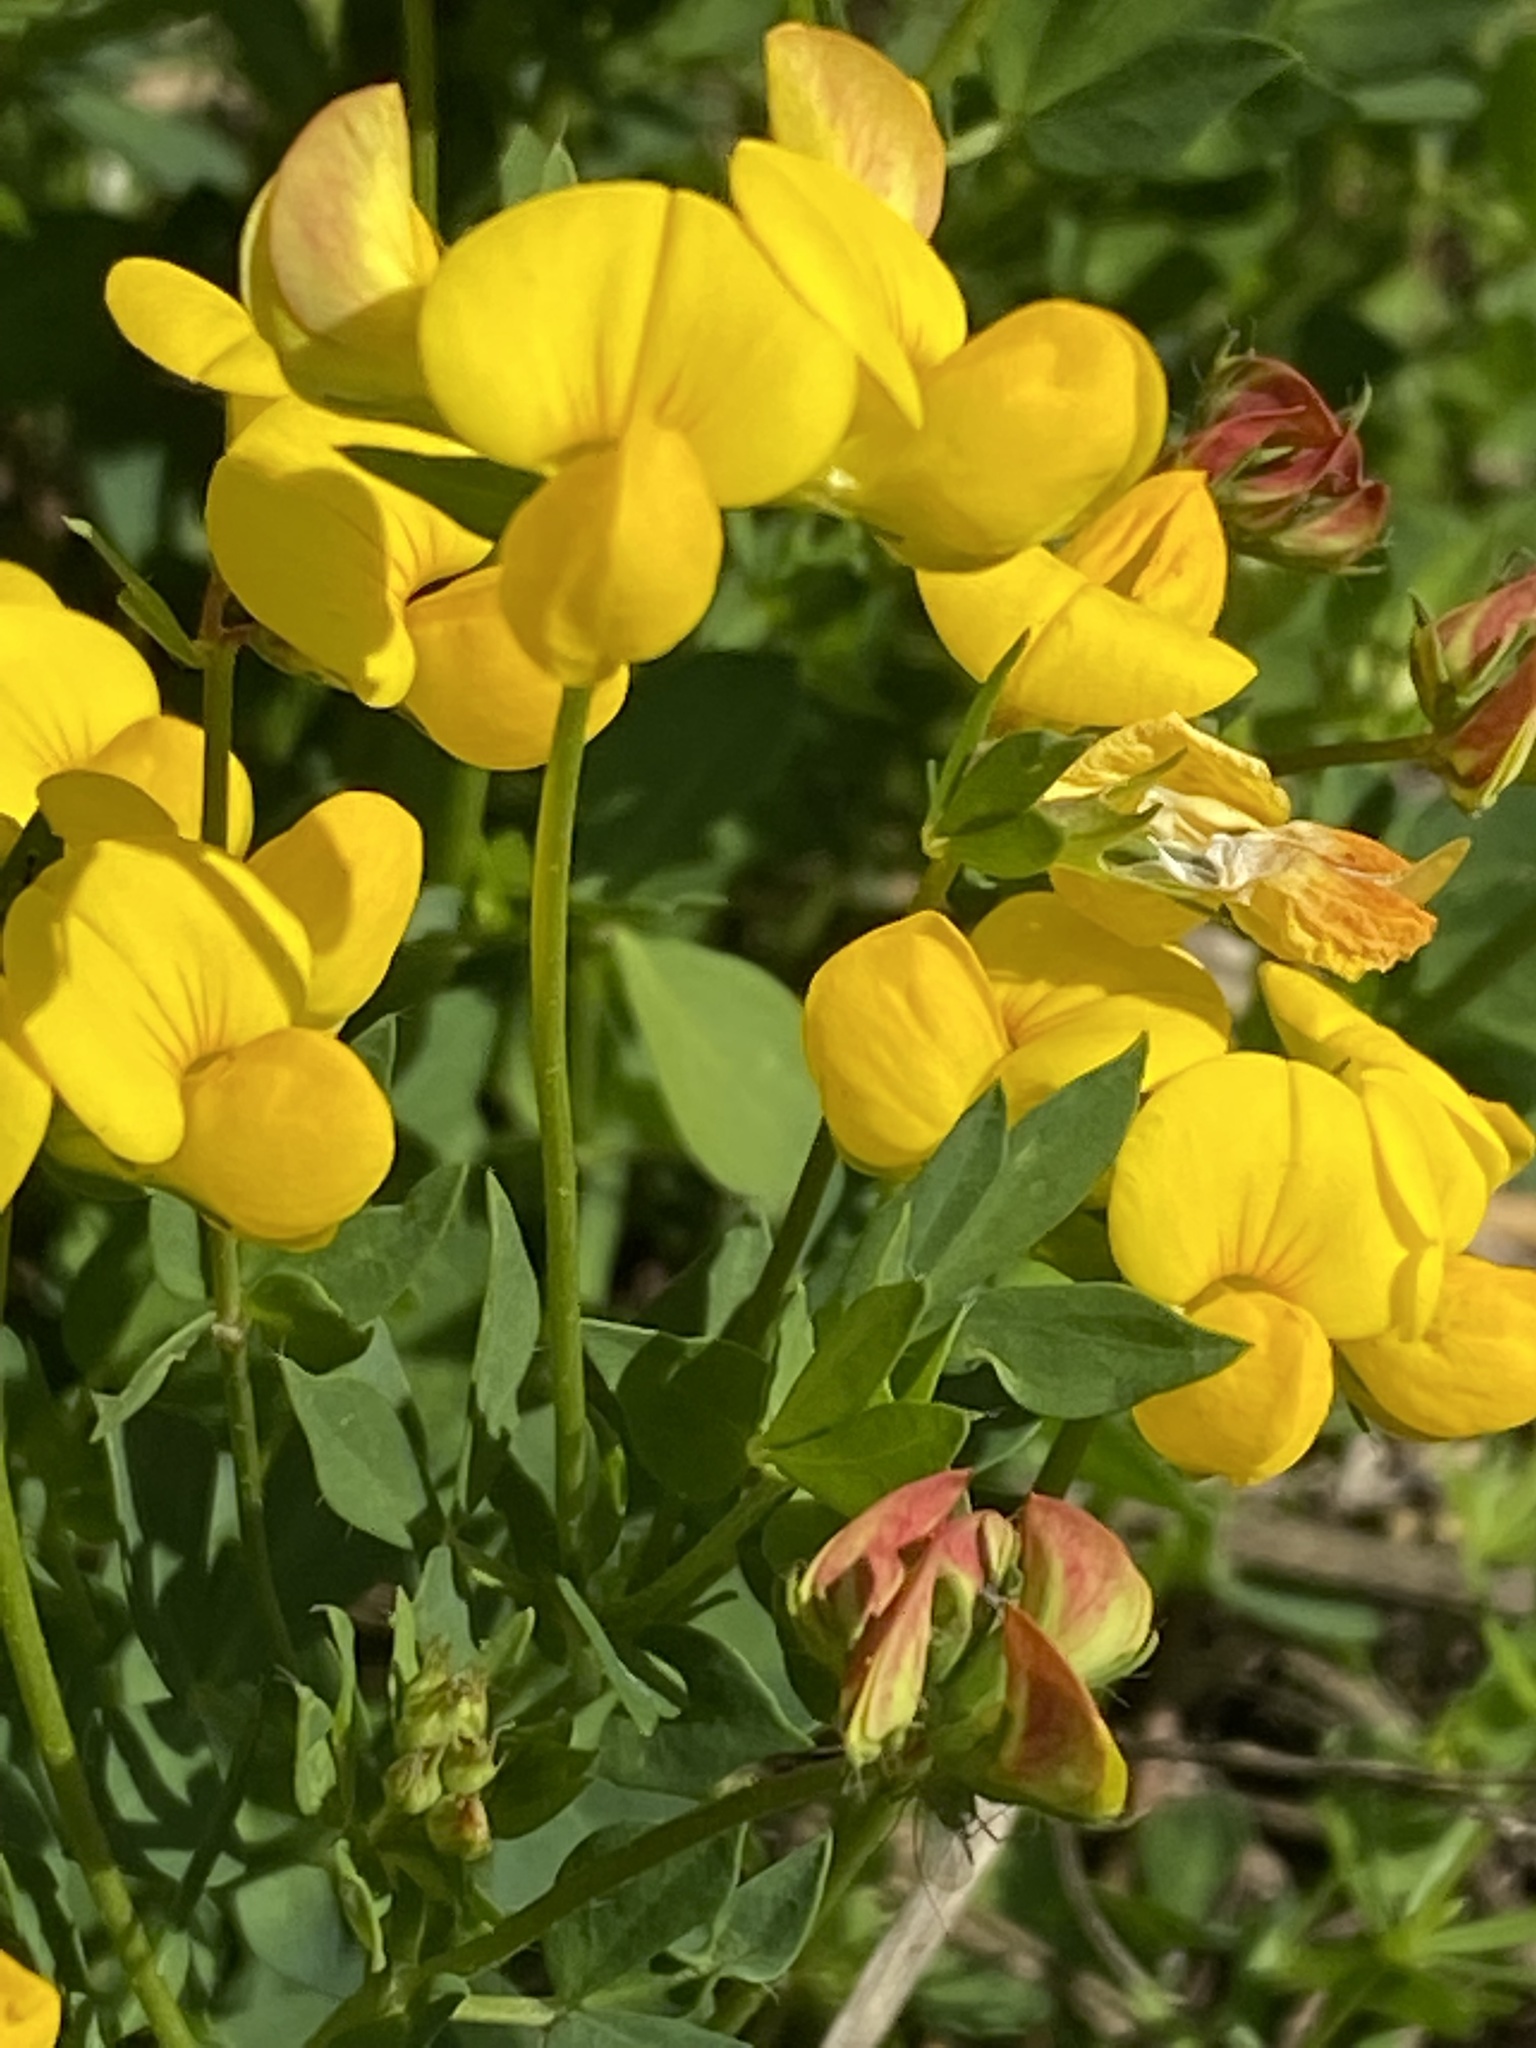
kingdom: Plantae
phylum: Tracheophyta
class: Magnoliopsida
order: Fabales
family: Fabaceae
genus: Lotus
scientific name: Lotus corniculatus
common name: Common bird's-foot-trefoil
